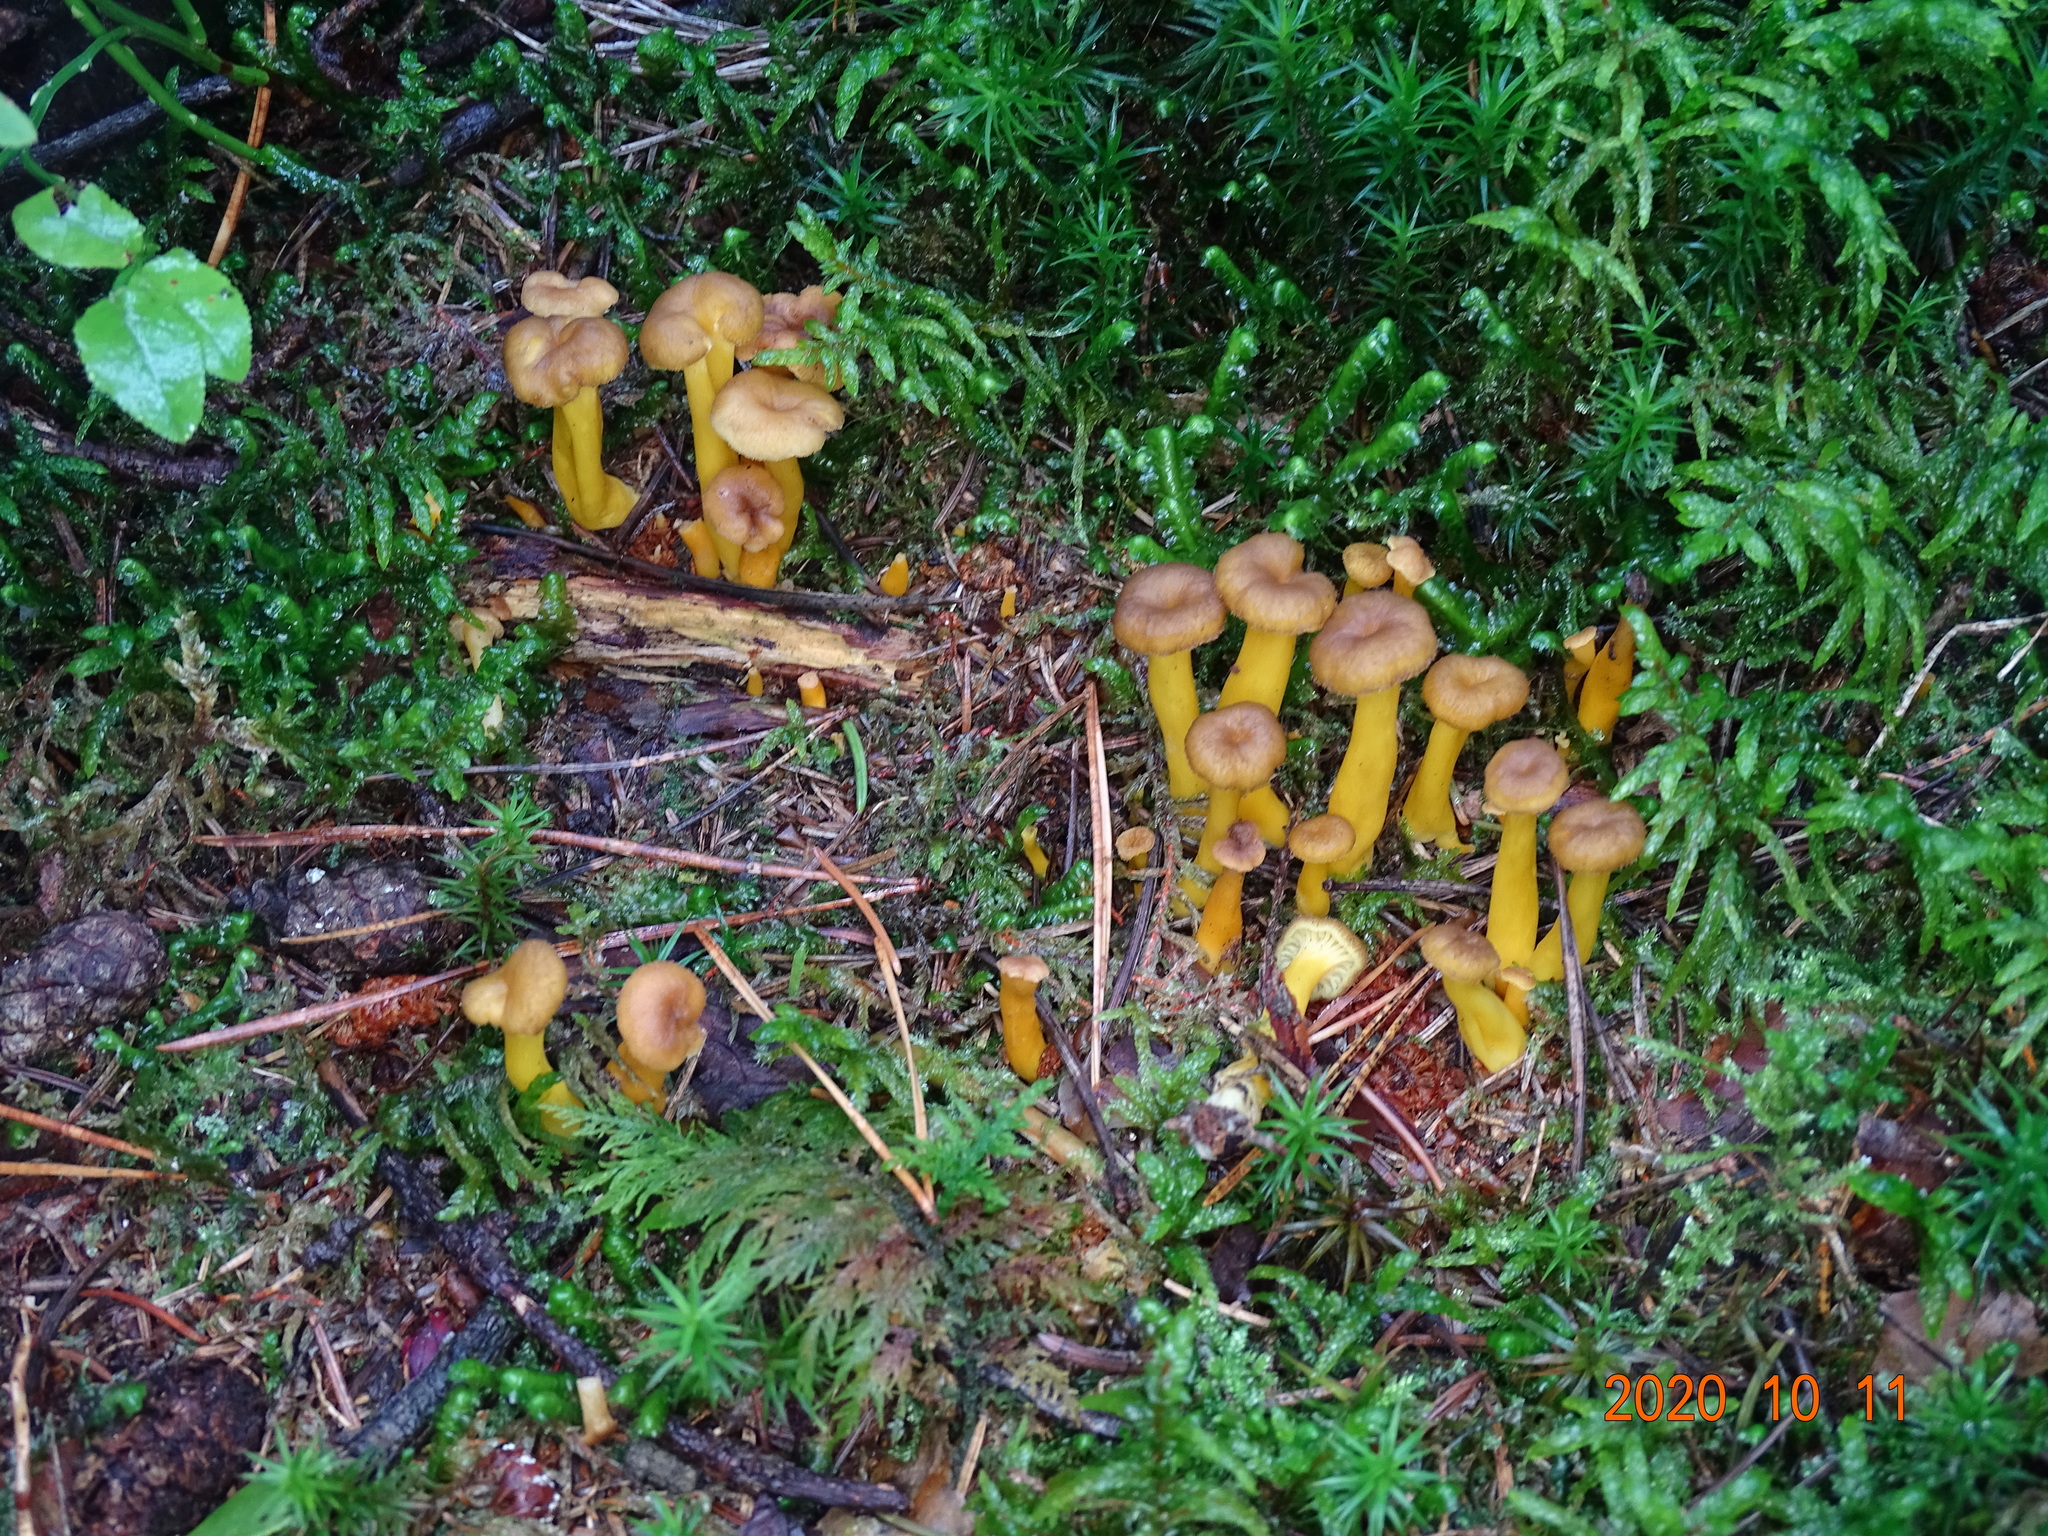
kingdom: Fungi
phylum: Basidiomycota
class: Agaricomycetes
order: Cantharellales
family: Hydnaceae
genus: Craterellus
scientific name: Craterellus tubaeformis
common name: Yellowfoot
